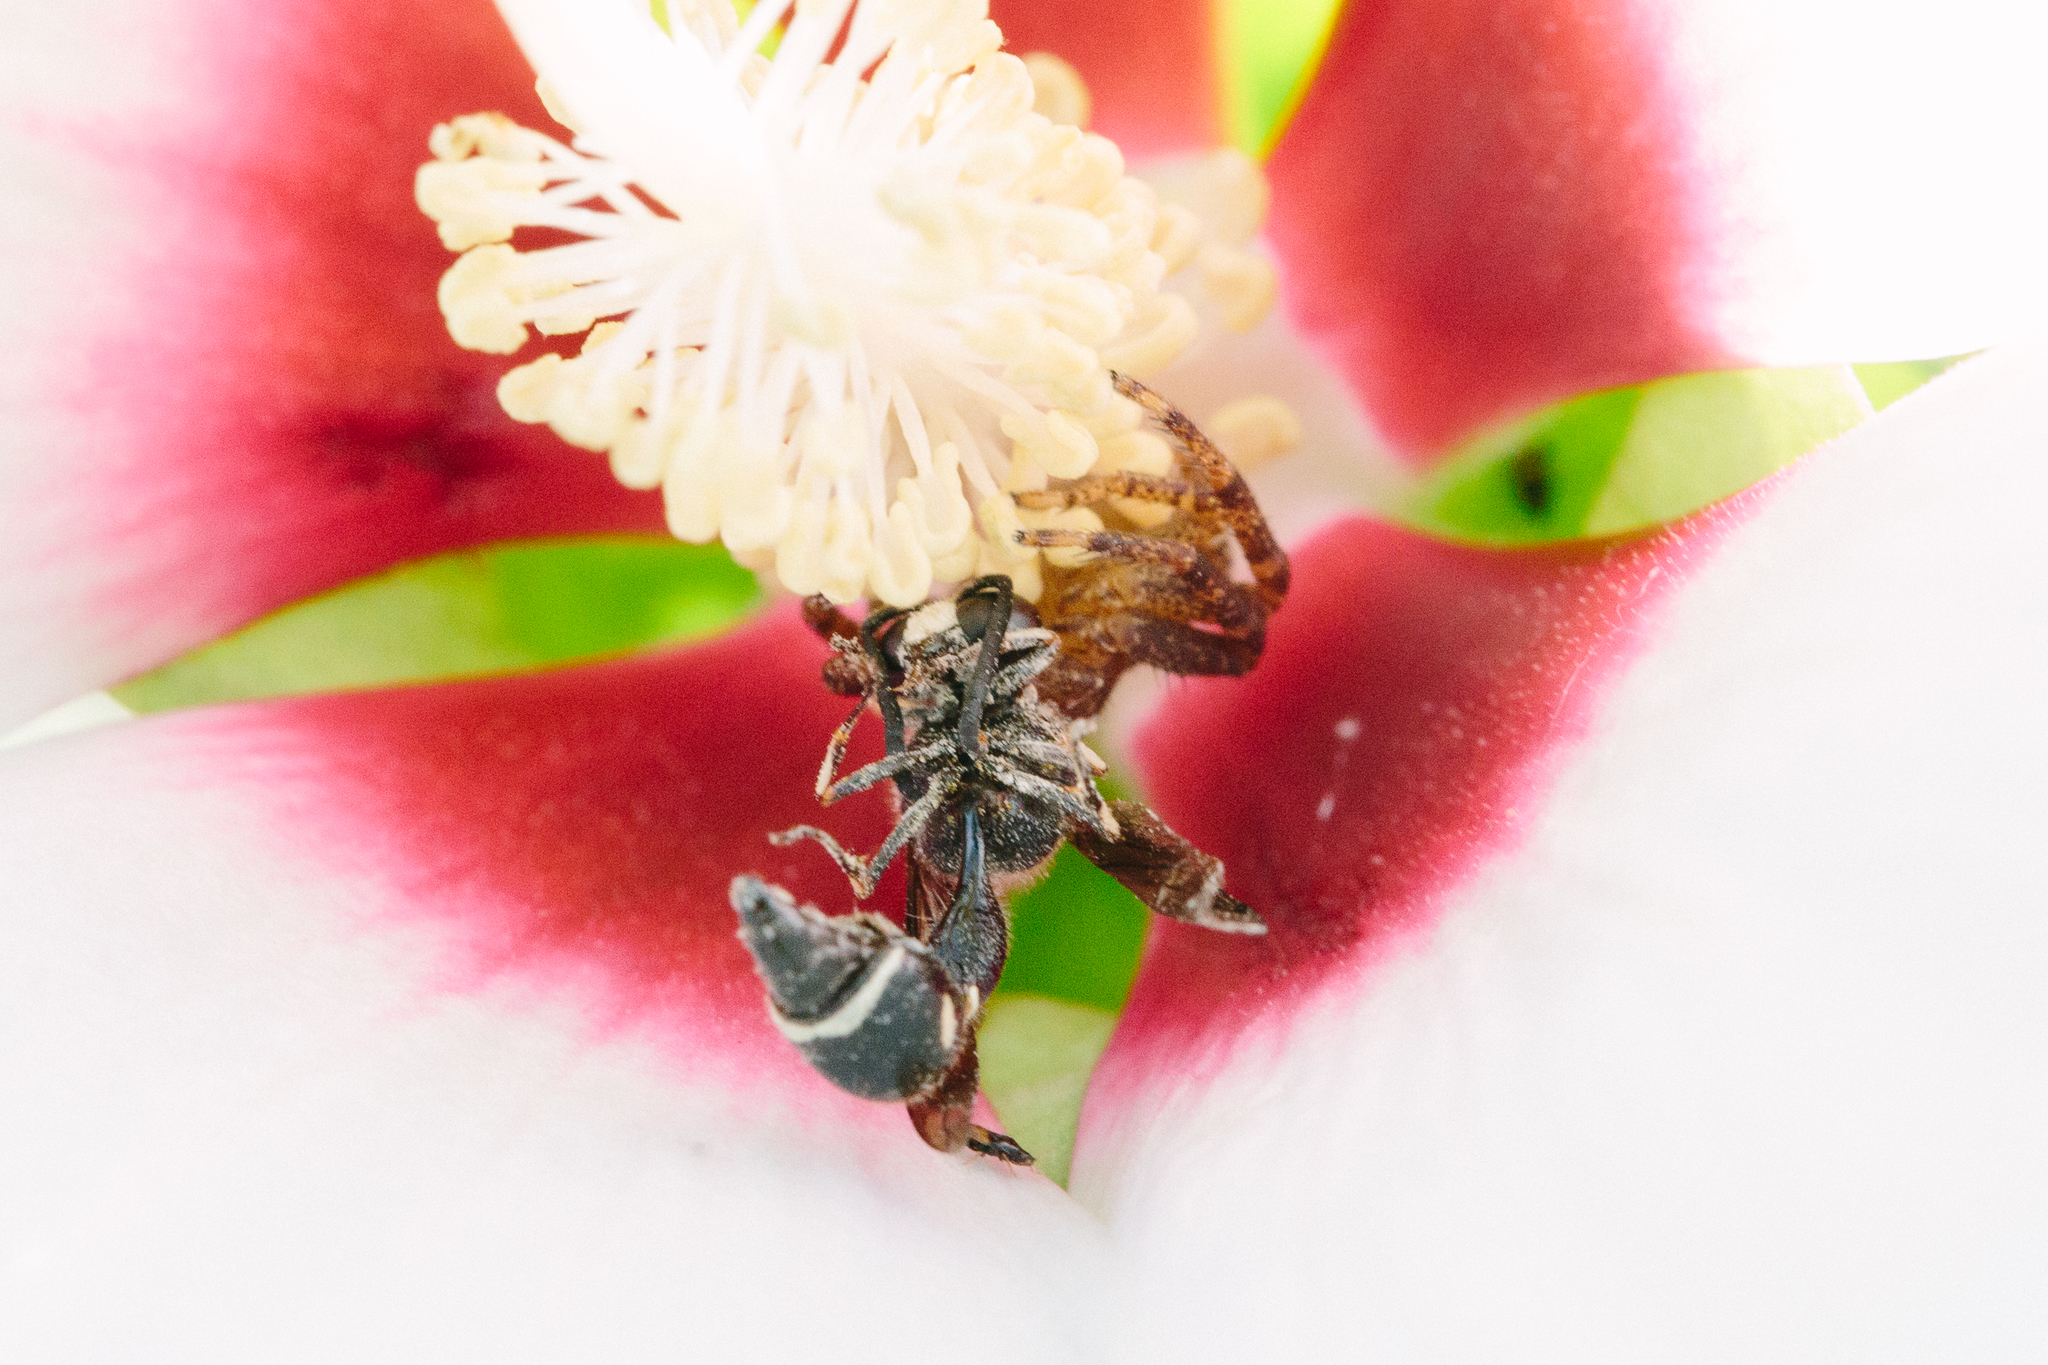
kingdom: Animalia
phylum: Arthropoda
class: Insecta
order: Hymenoptera
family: Vespidae
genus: Eumenes
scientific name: Eumenes fraternus
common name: Fraternal potter wasp
